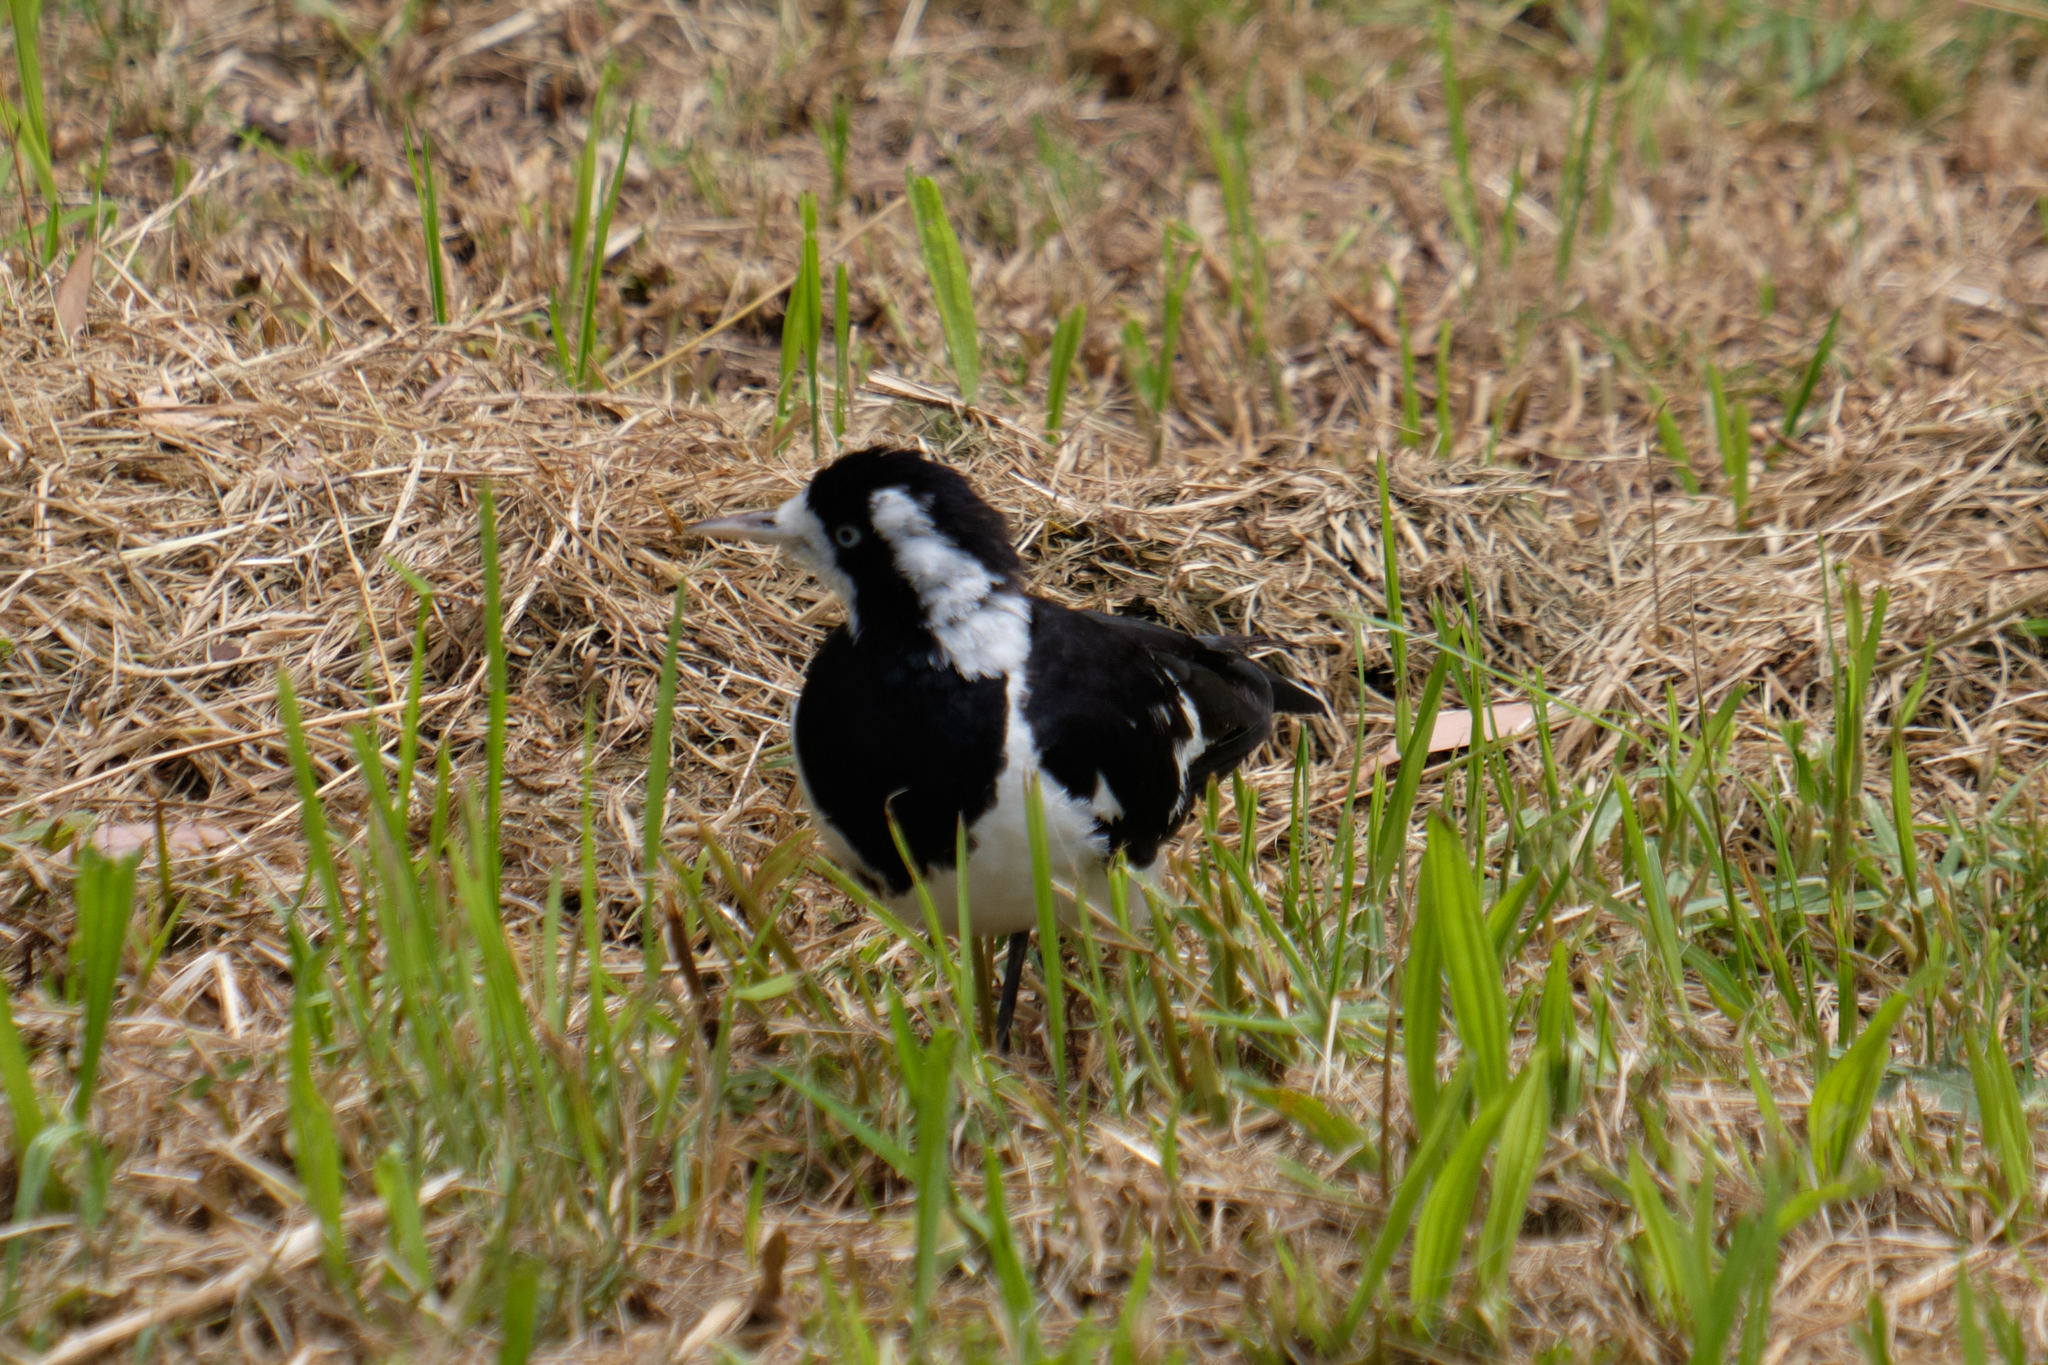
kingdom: Animalia
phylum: Chordata
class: Aves
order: Passeriformes
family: Monarchidae
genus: Grallina
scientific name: Grallina cyanoleuca
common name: Magpie-lark
